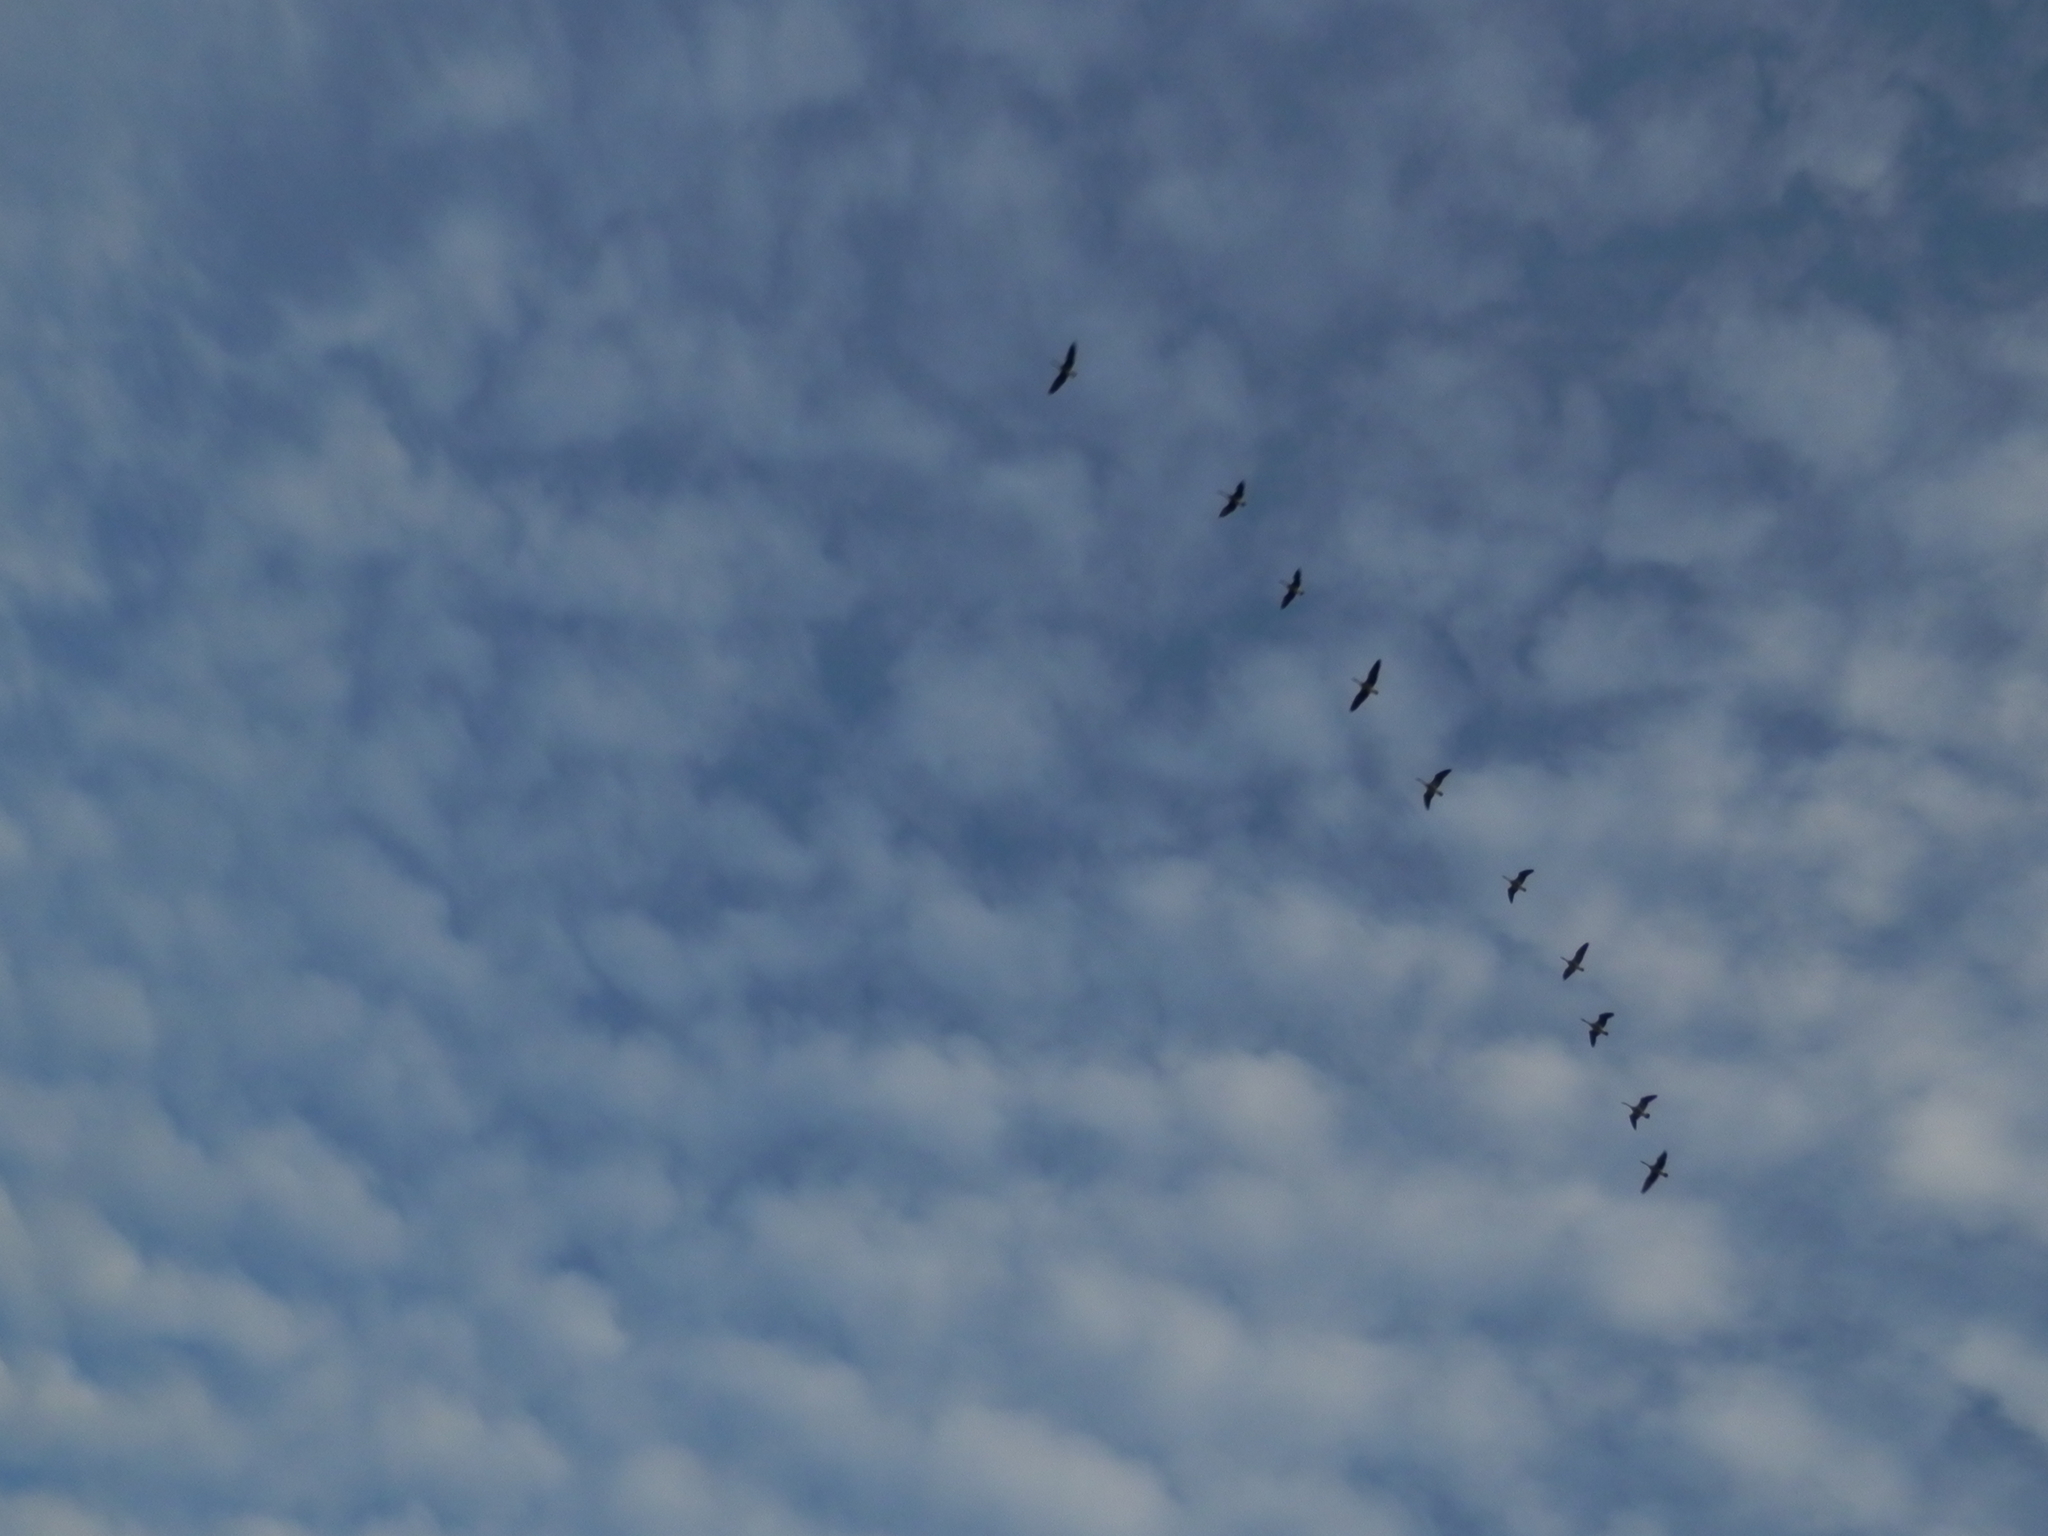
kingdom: Animalia
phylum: Chordata
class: Aves
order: Anseriformes
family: Anatidae
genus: Branta
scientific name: Branta canadensis
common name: Canada goose
